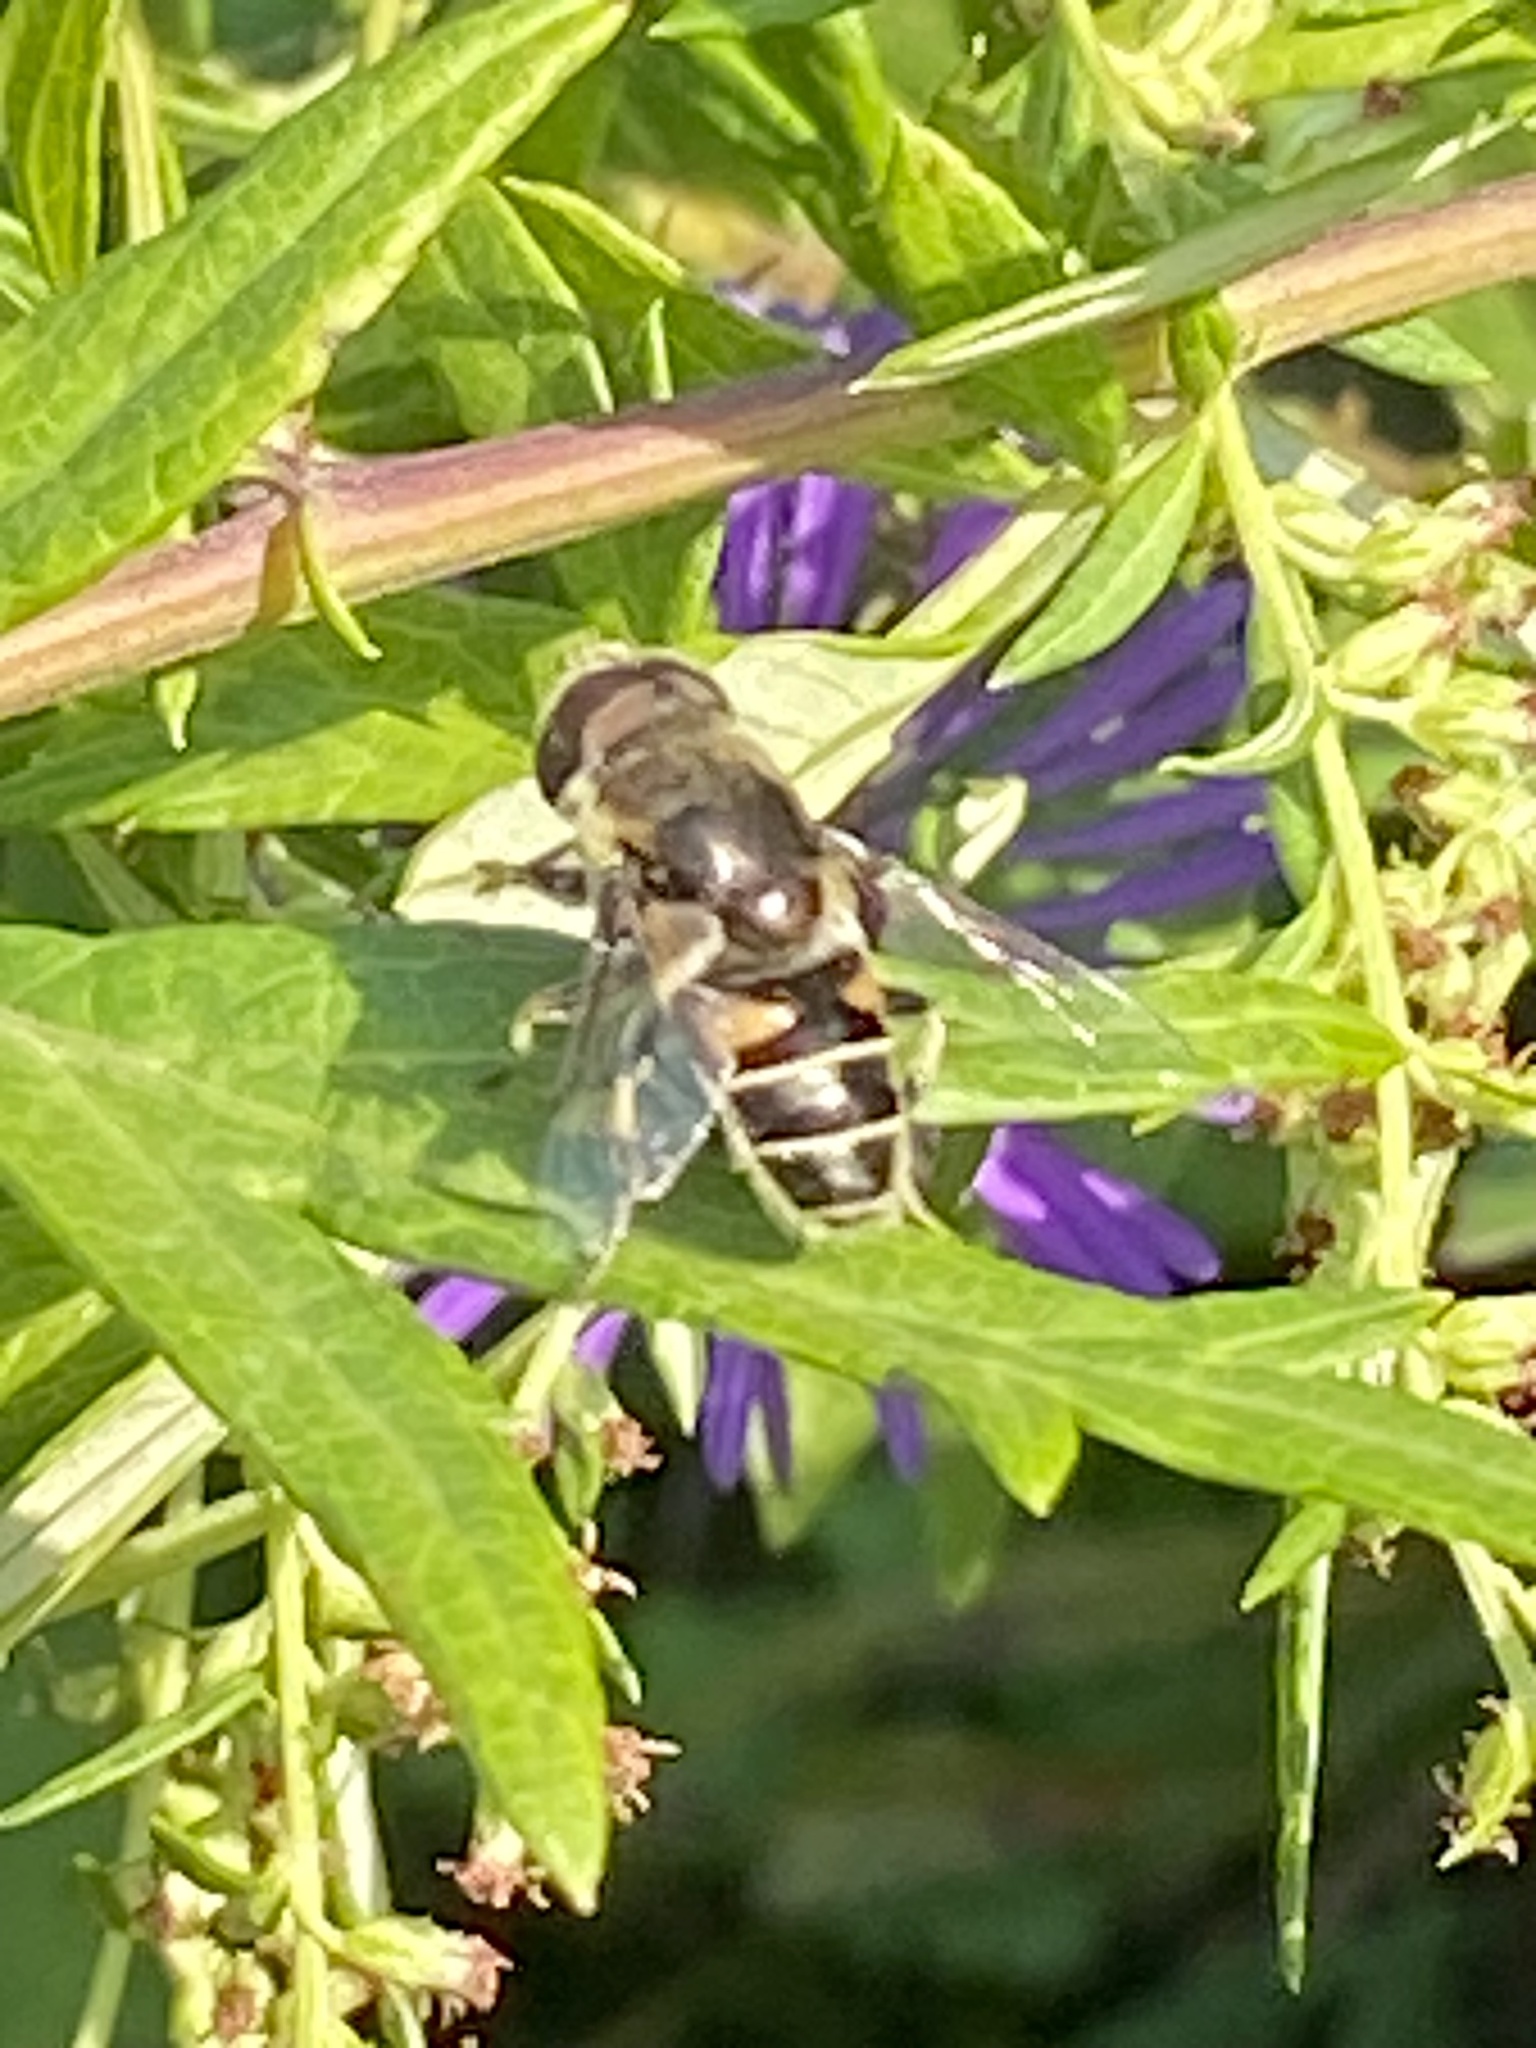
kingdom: Animalia
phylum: Arthropoda
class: Insecta
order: Diptera
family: Syrphidae
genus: Eristalis
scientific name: Eristalis dimidiata
